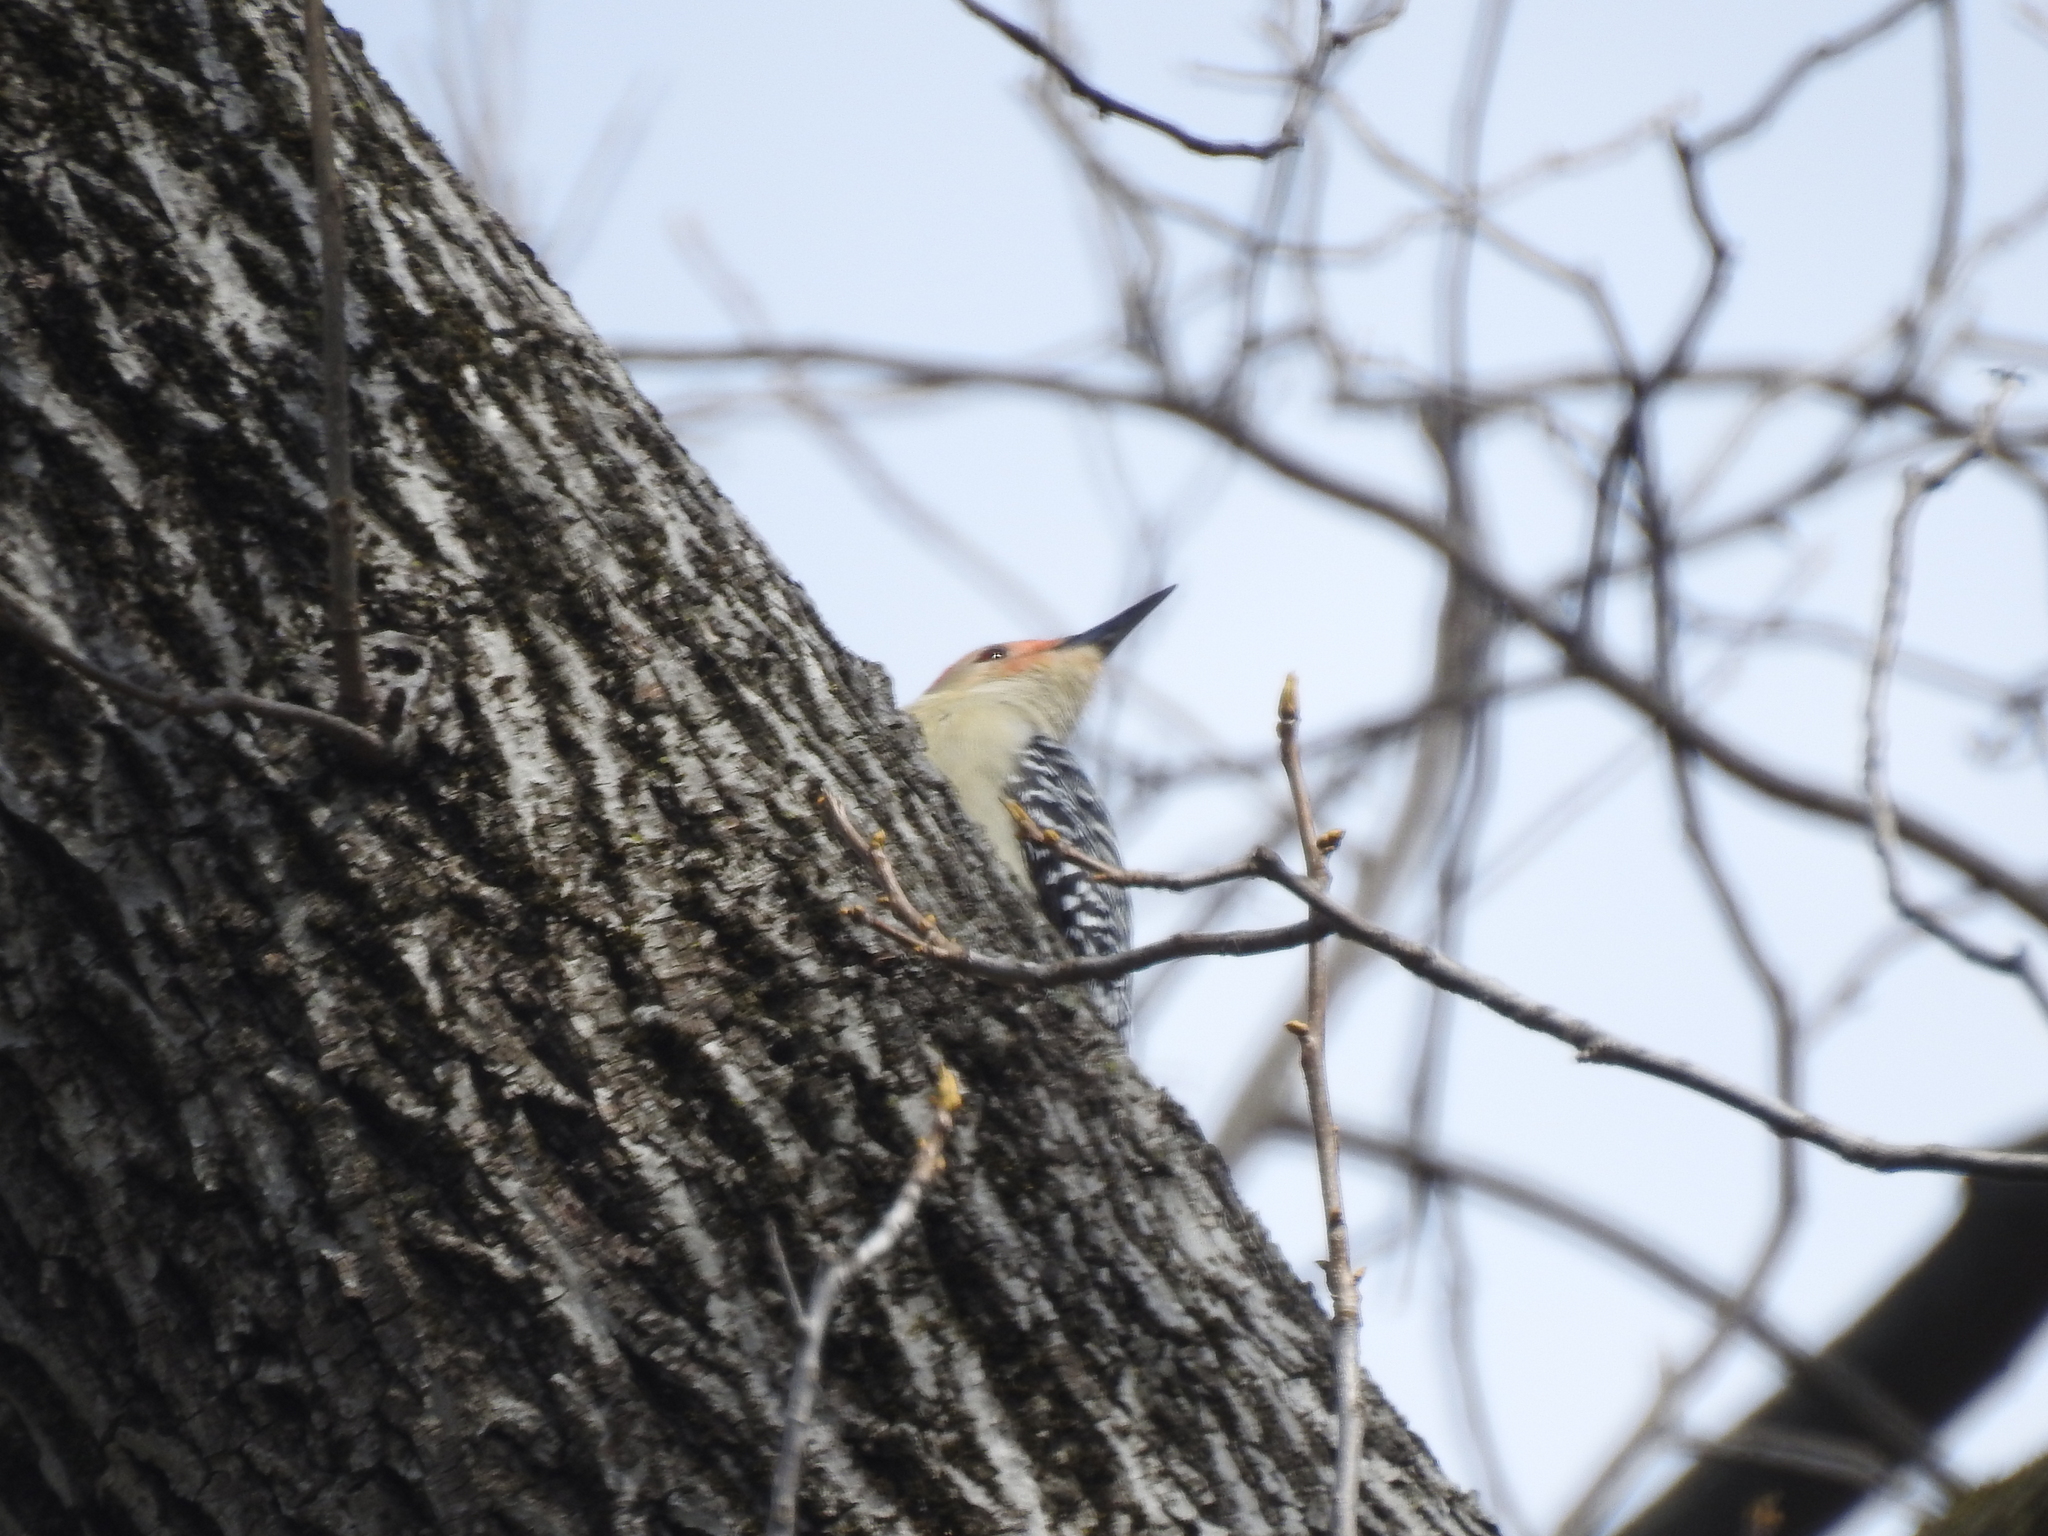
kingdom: Animalia
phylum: Chordata
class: Aves
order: Piciformes
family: Picidae
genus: Melanerpes
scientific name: Melanerpes carolinus
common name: Red-bellied woodpecker
